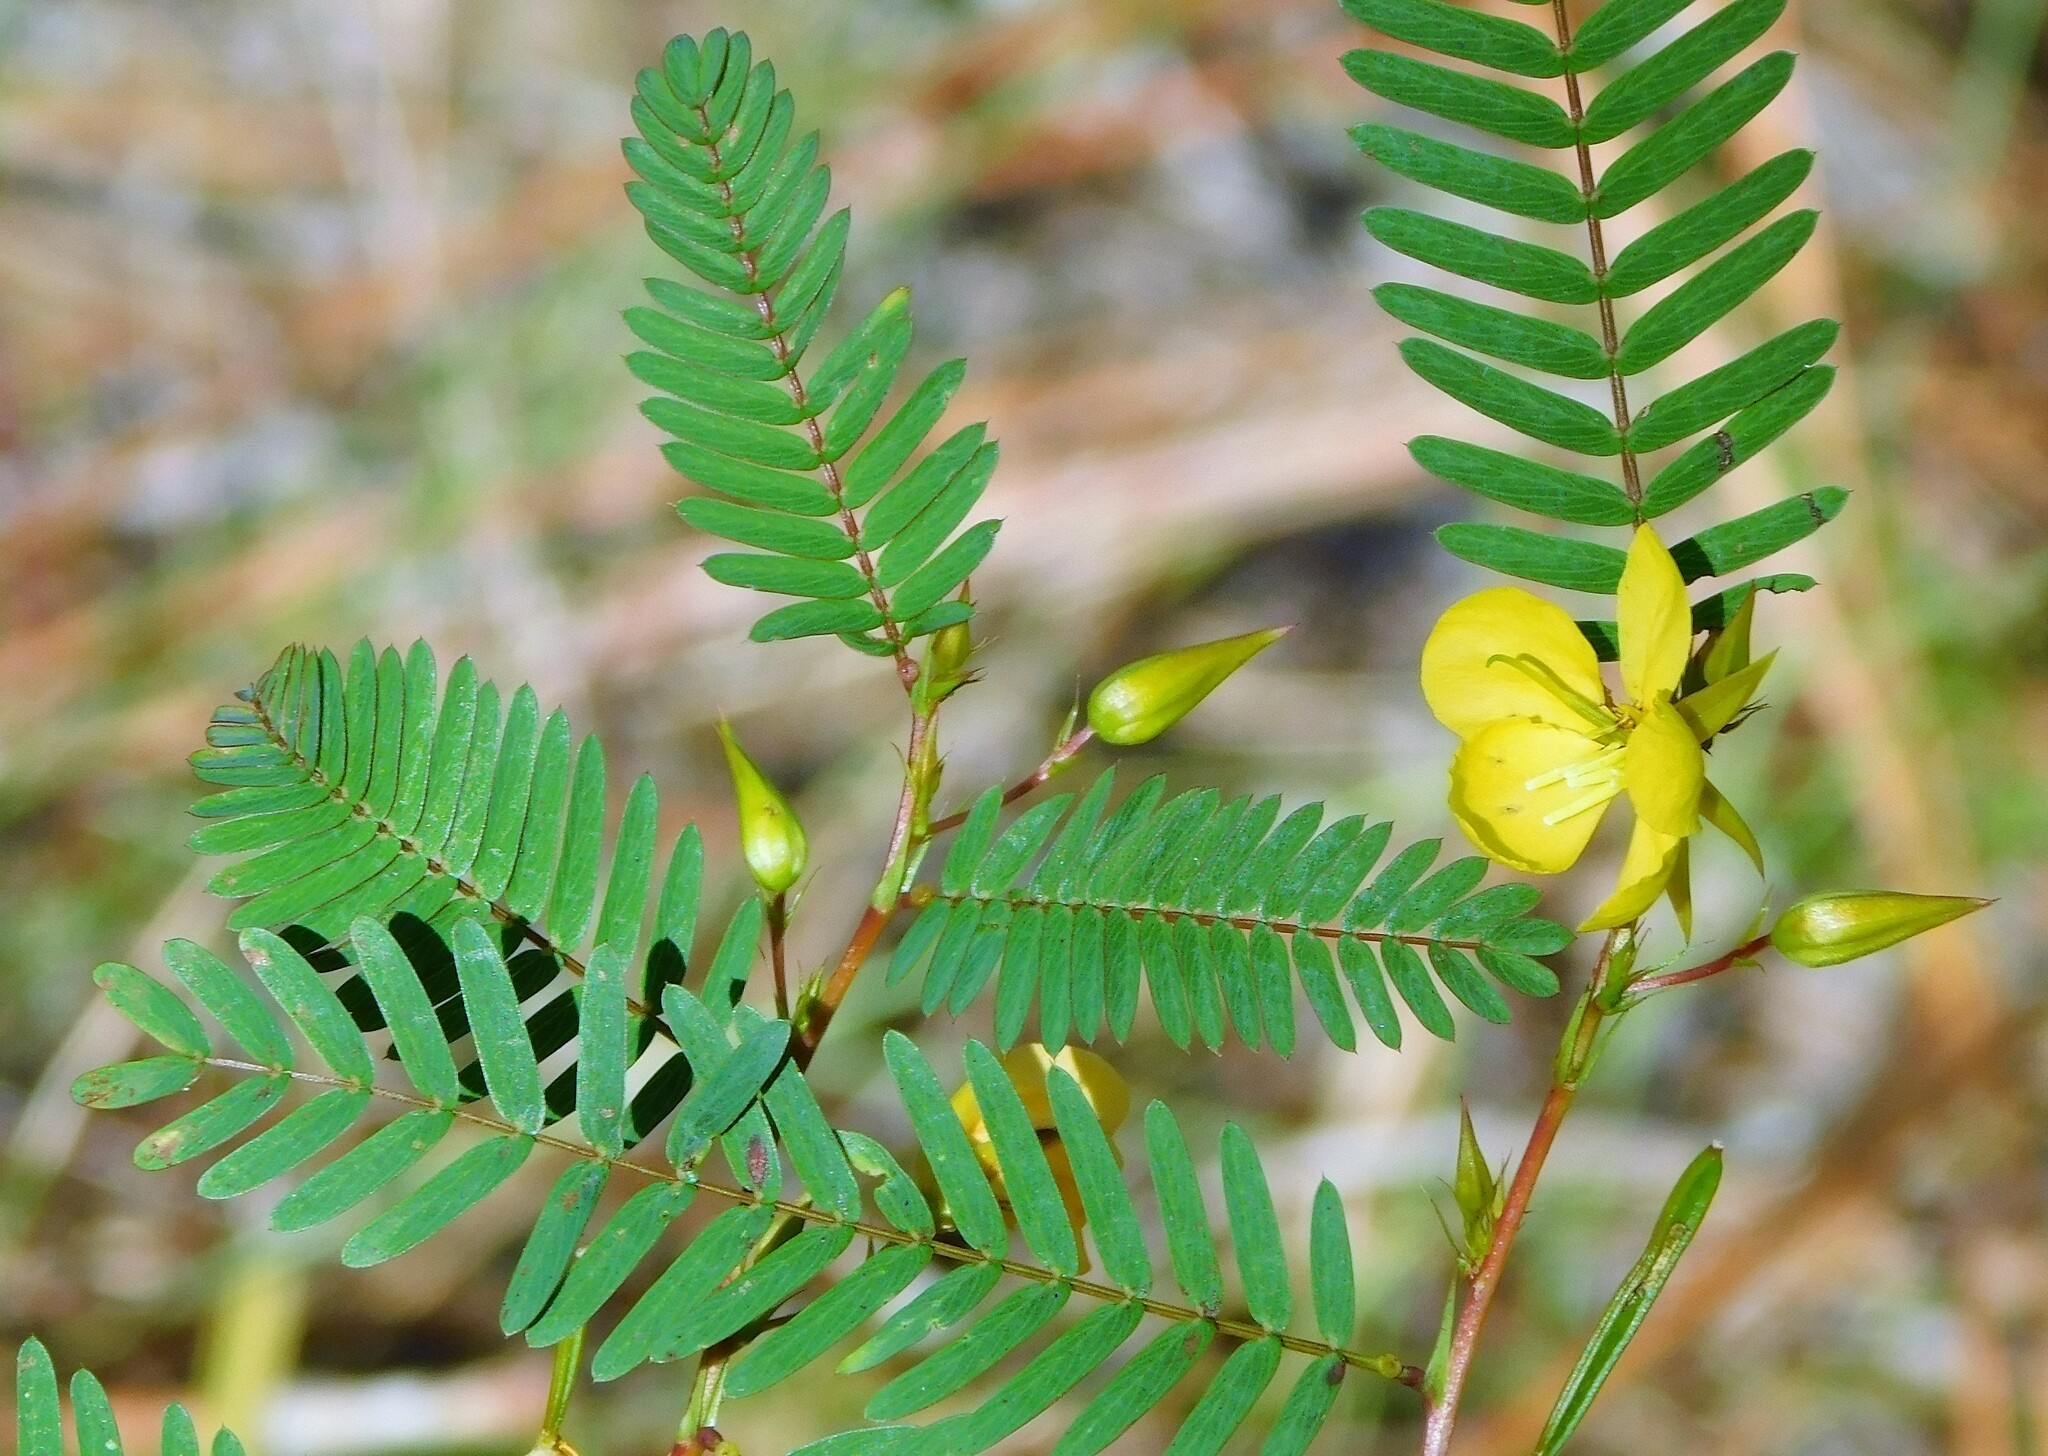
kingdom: Plantae
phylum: Tracheophyta
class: Magnoliopsida
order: Fabales
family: Fabaceae
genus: Chamaecrista
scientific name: Chamaecrista fasciculata
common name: Golden cassia
